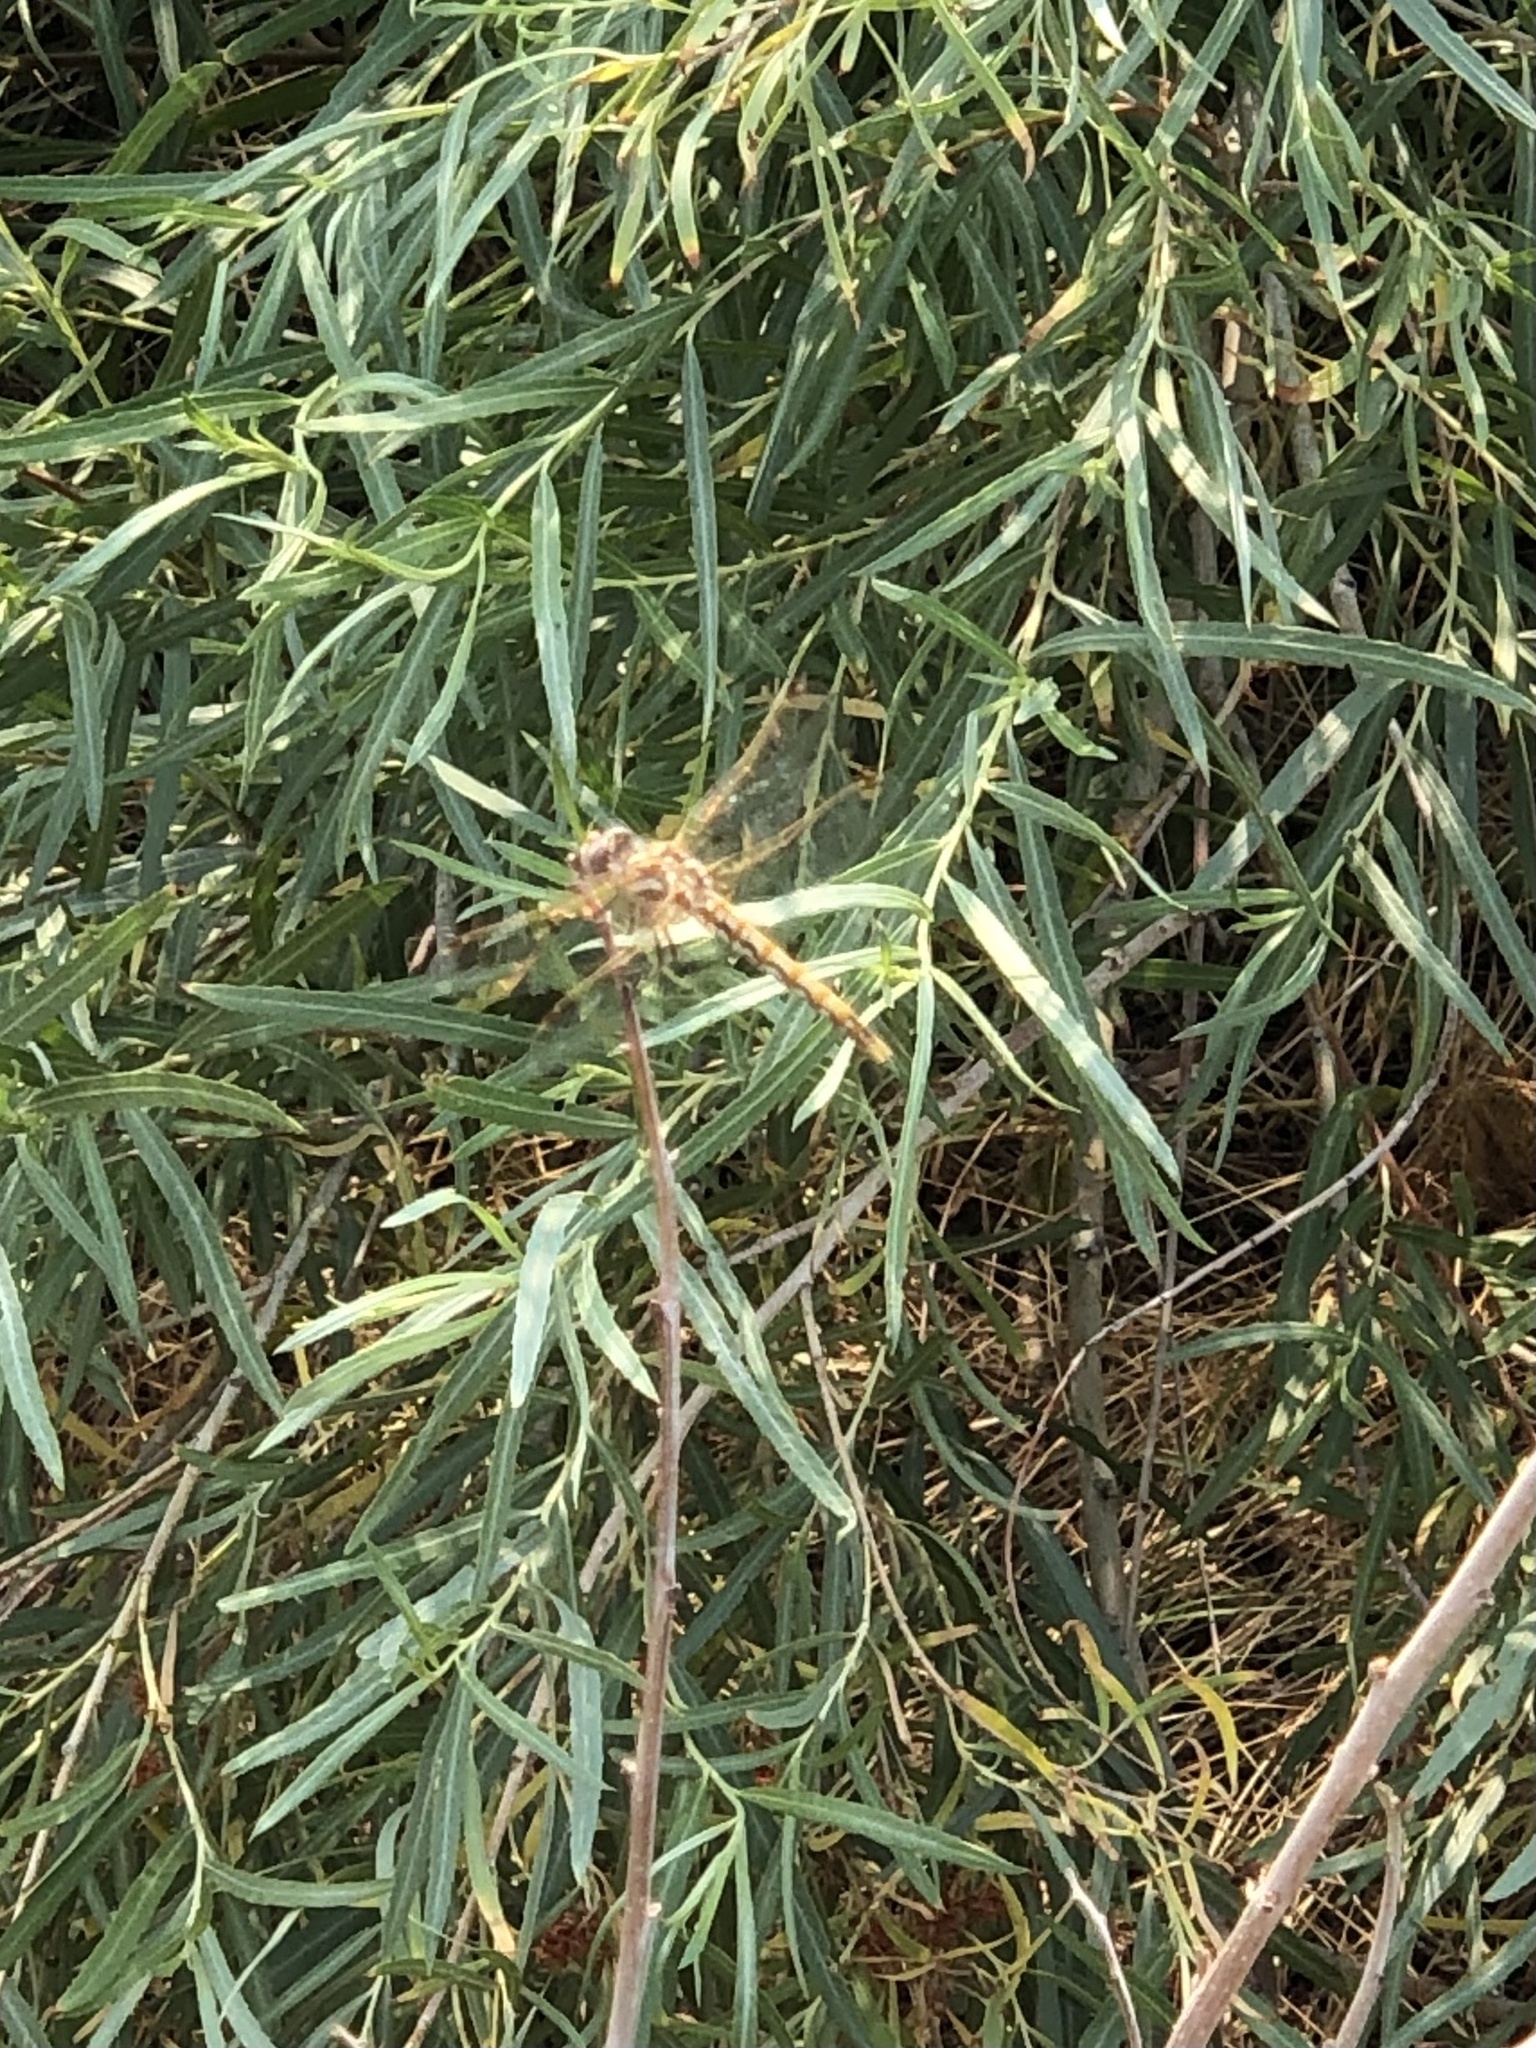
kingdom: Animalia
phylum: Arthropoda
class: Insecta
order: Odonata
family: Libellulidae
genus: Sympetrum
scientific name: Sympetrum corruptum
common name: Variegated meadowhawk
